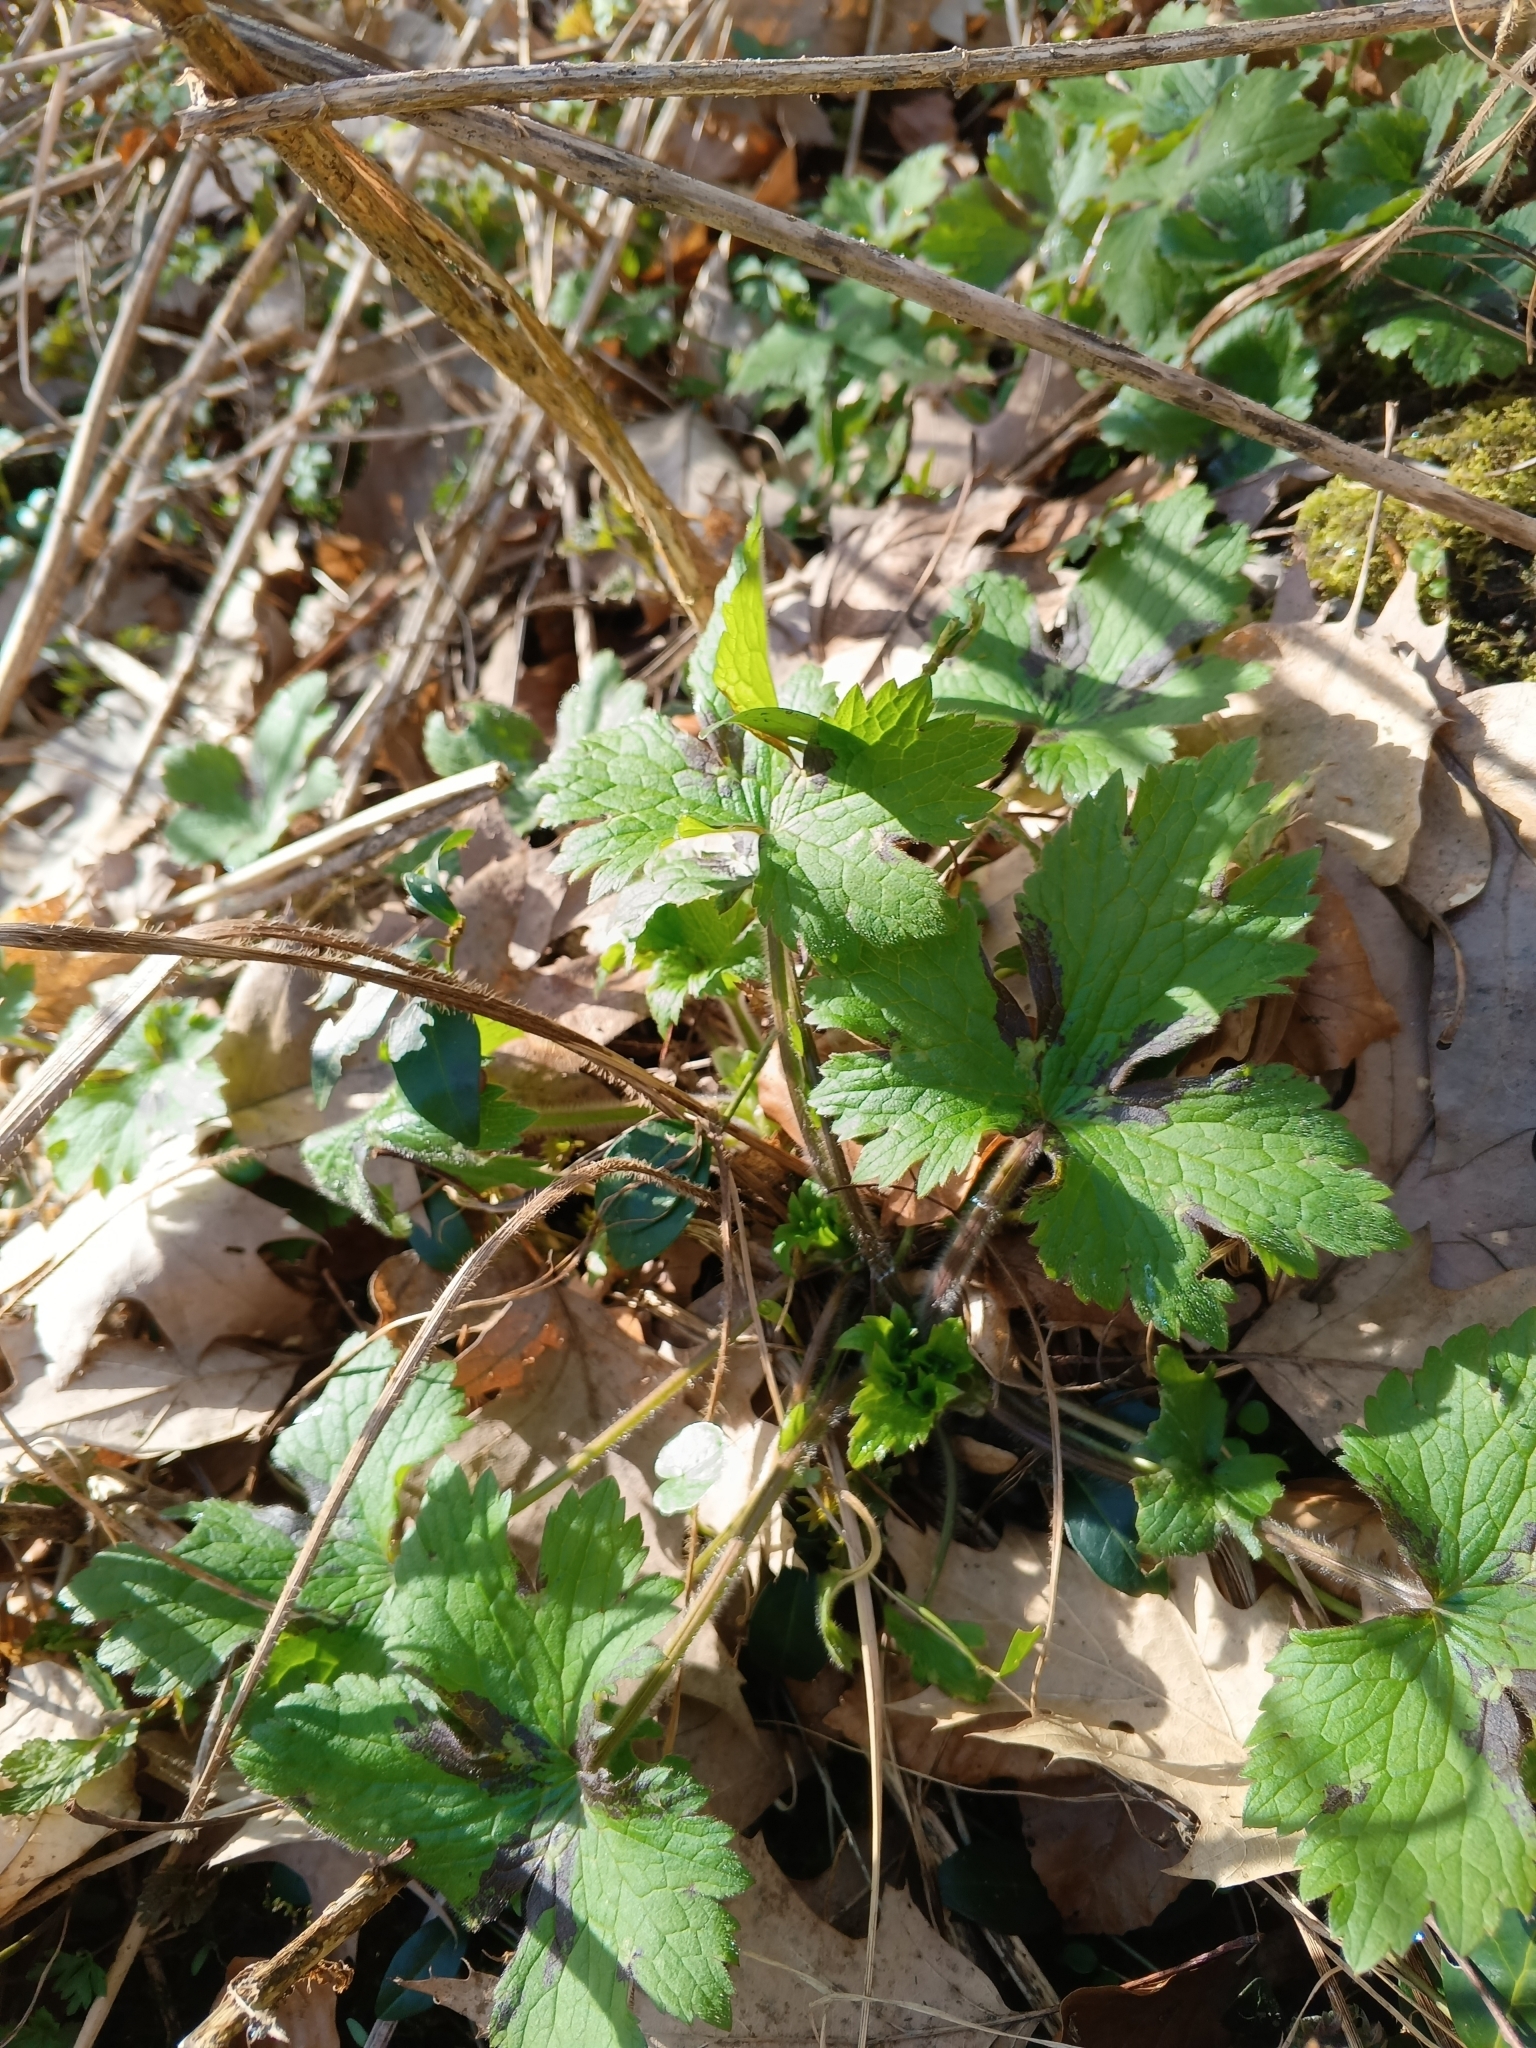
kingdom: Plantae
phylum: Tracheophyta
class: Magnoliopsida
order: Ranunculales
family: Ranunculaceae
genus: Ranunculus
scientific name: Ranunculus lanuginosus
